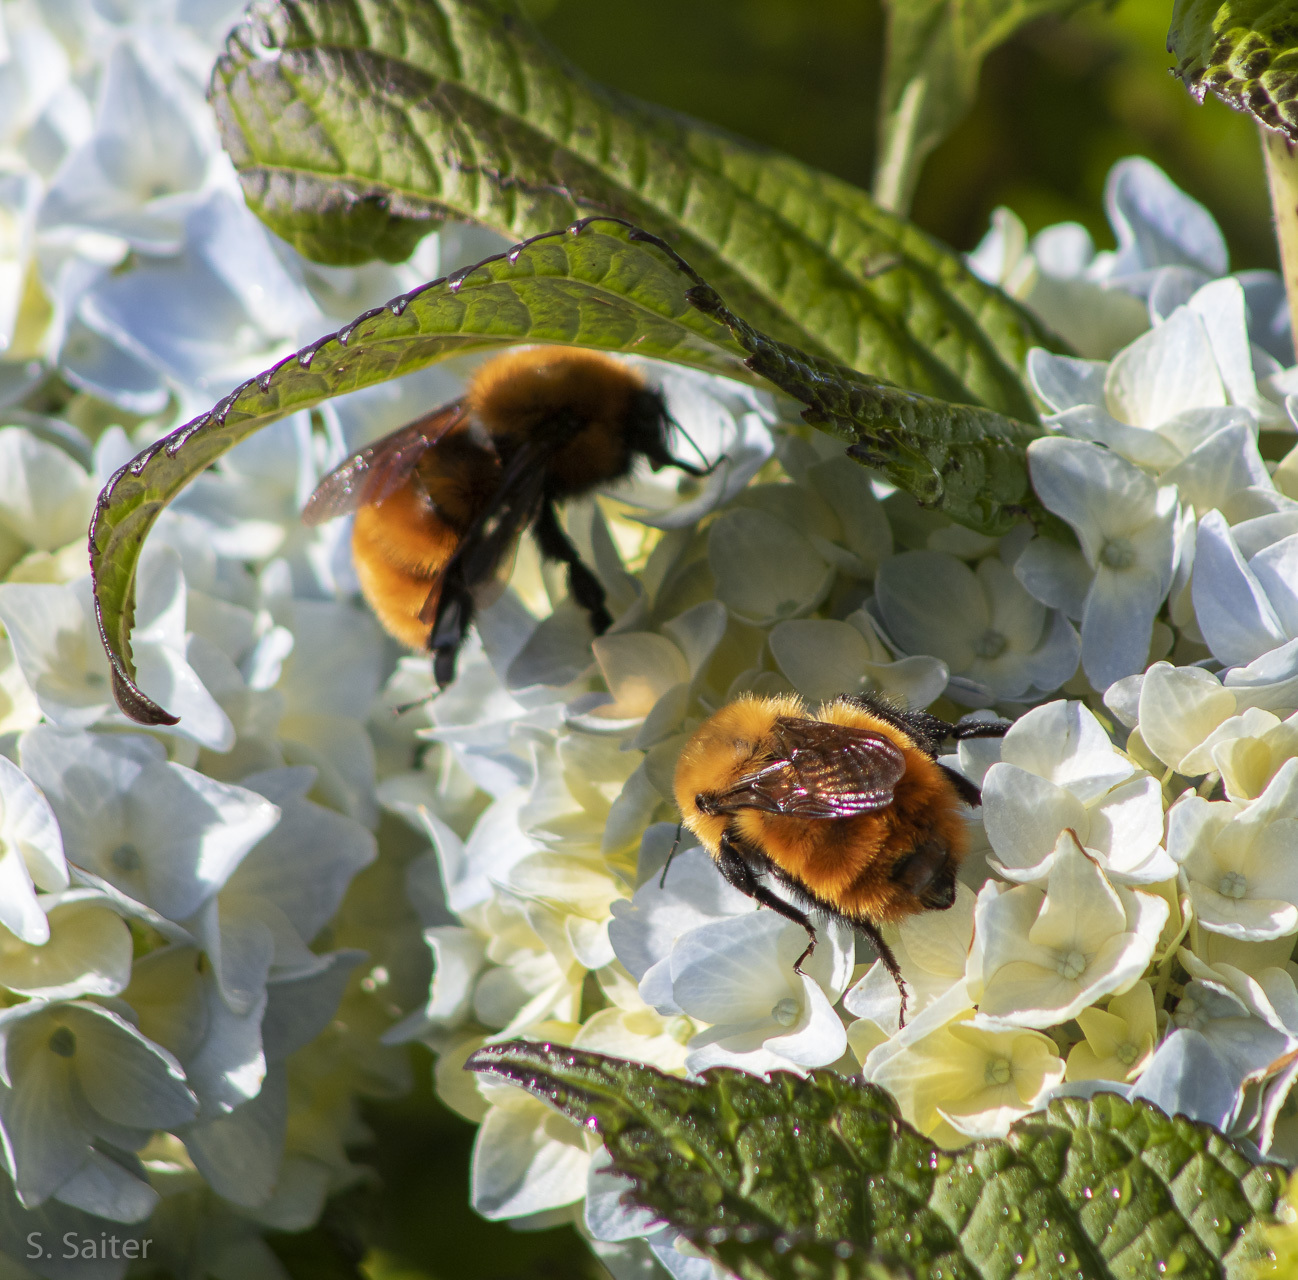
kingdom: Animalia
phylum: Arthropoda
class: Insecta
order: Hymenoptera
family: Apidae
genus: Bombus
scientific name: Bombus dahlbomii
